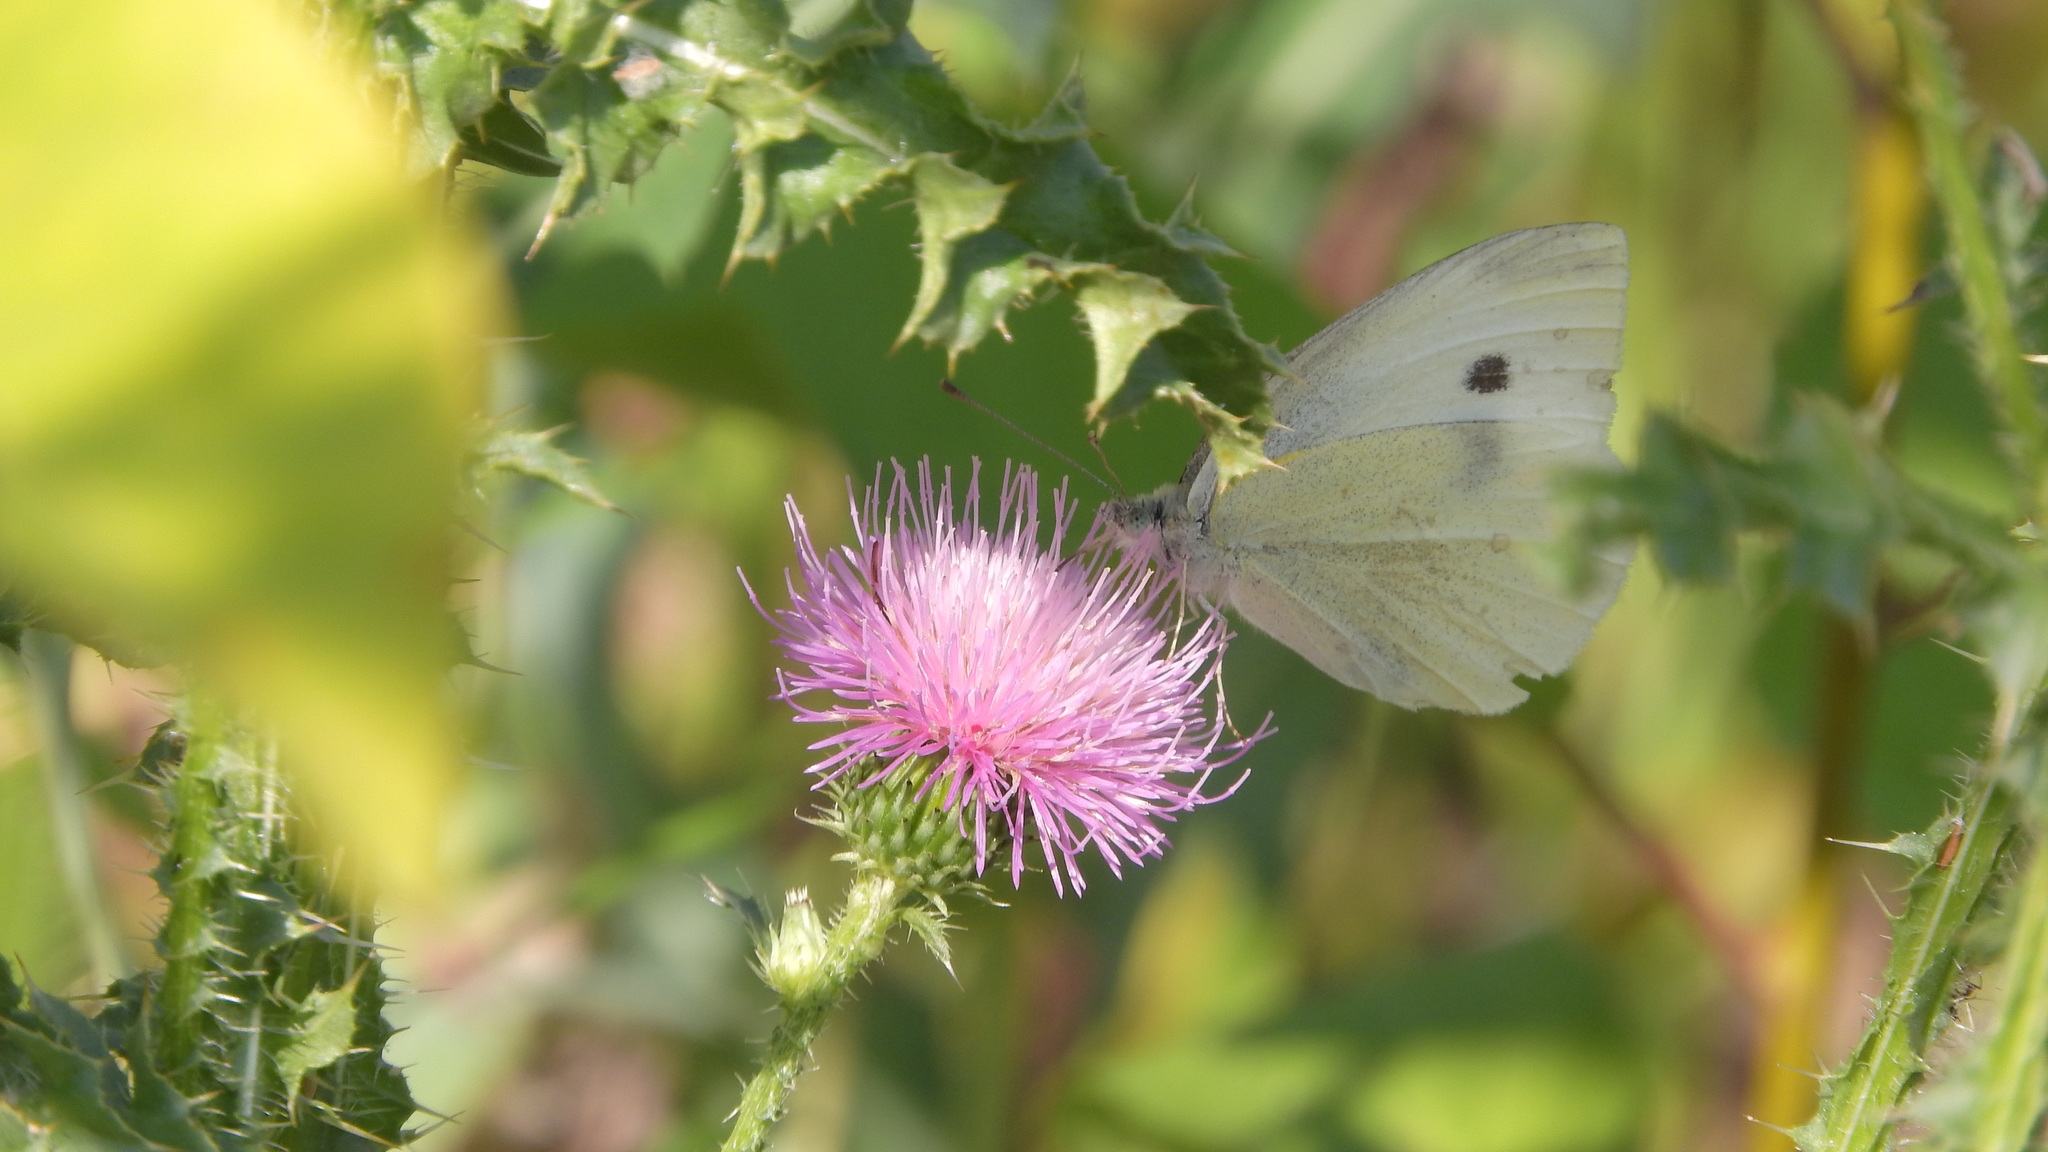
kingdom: Animalia
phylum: Arthropoda
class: Insecta
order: Lepidoptera
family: Pieridae
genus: Pieris
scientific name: Pieris rapae
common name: Small white
